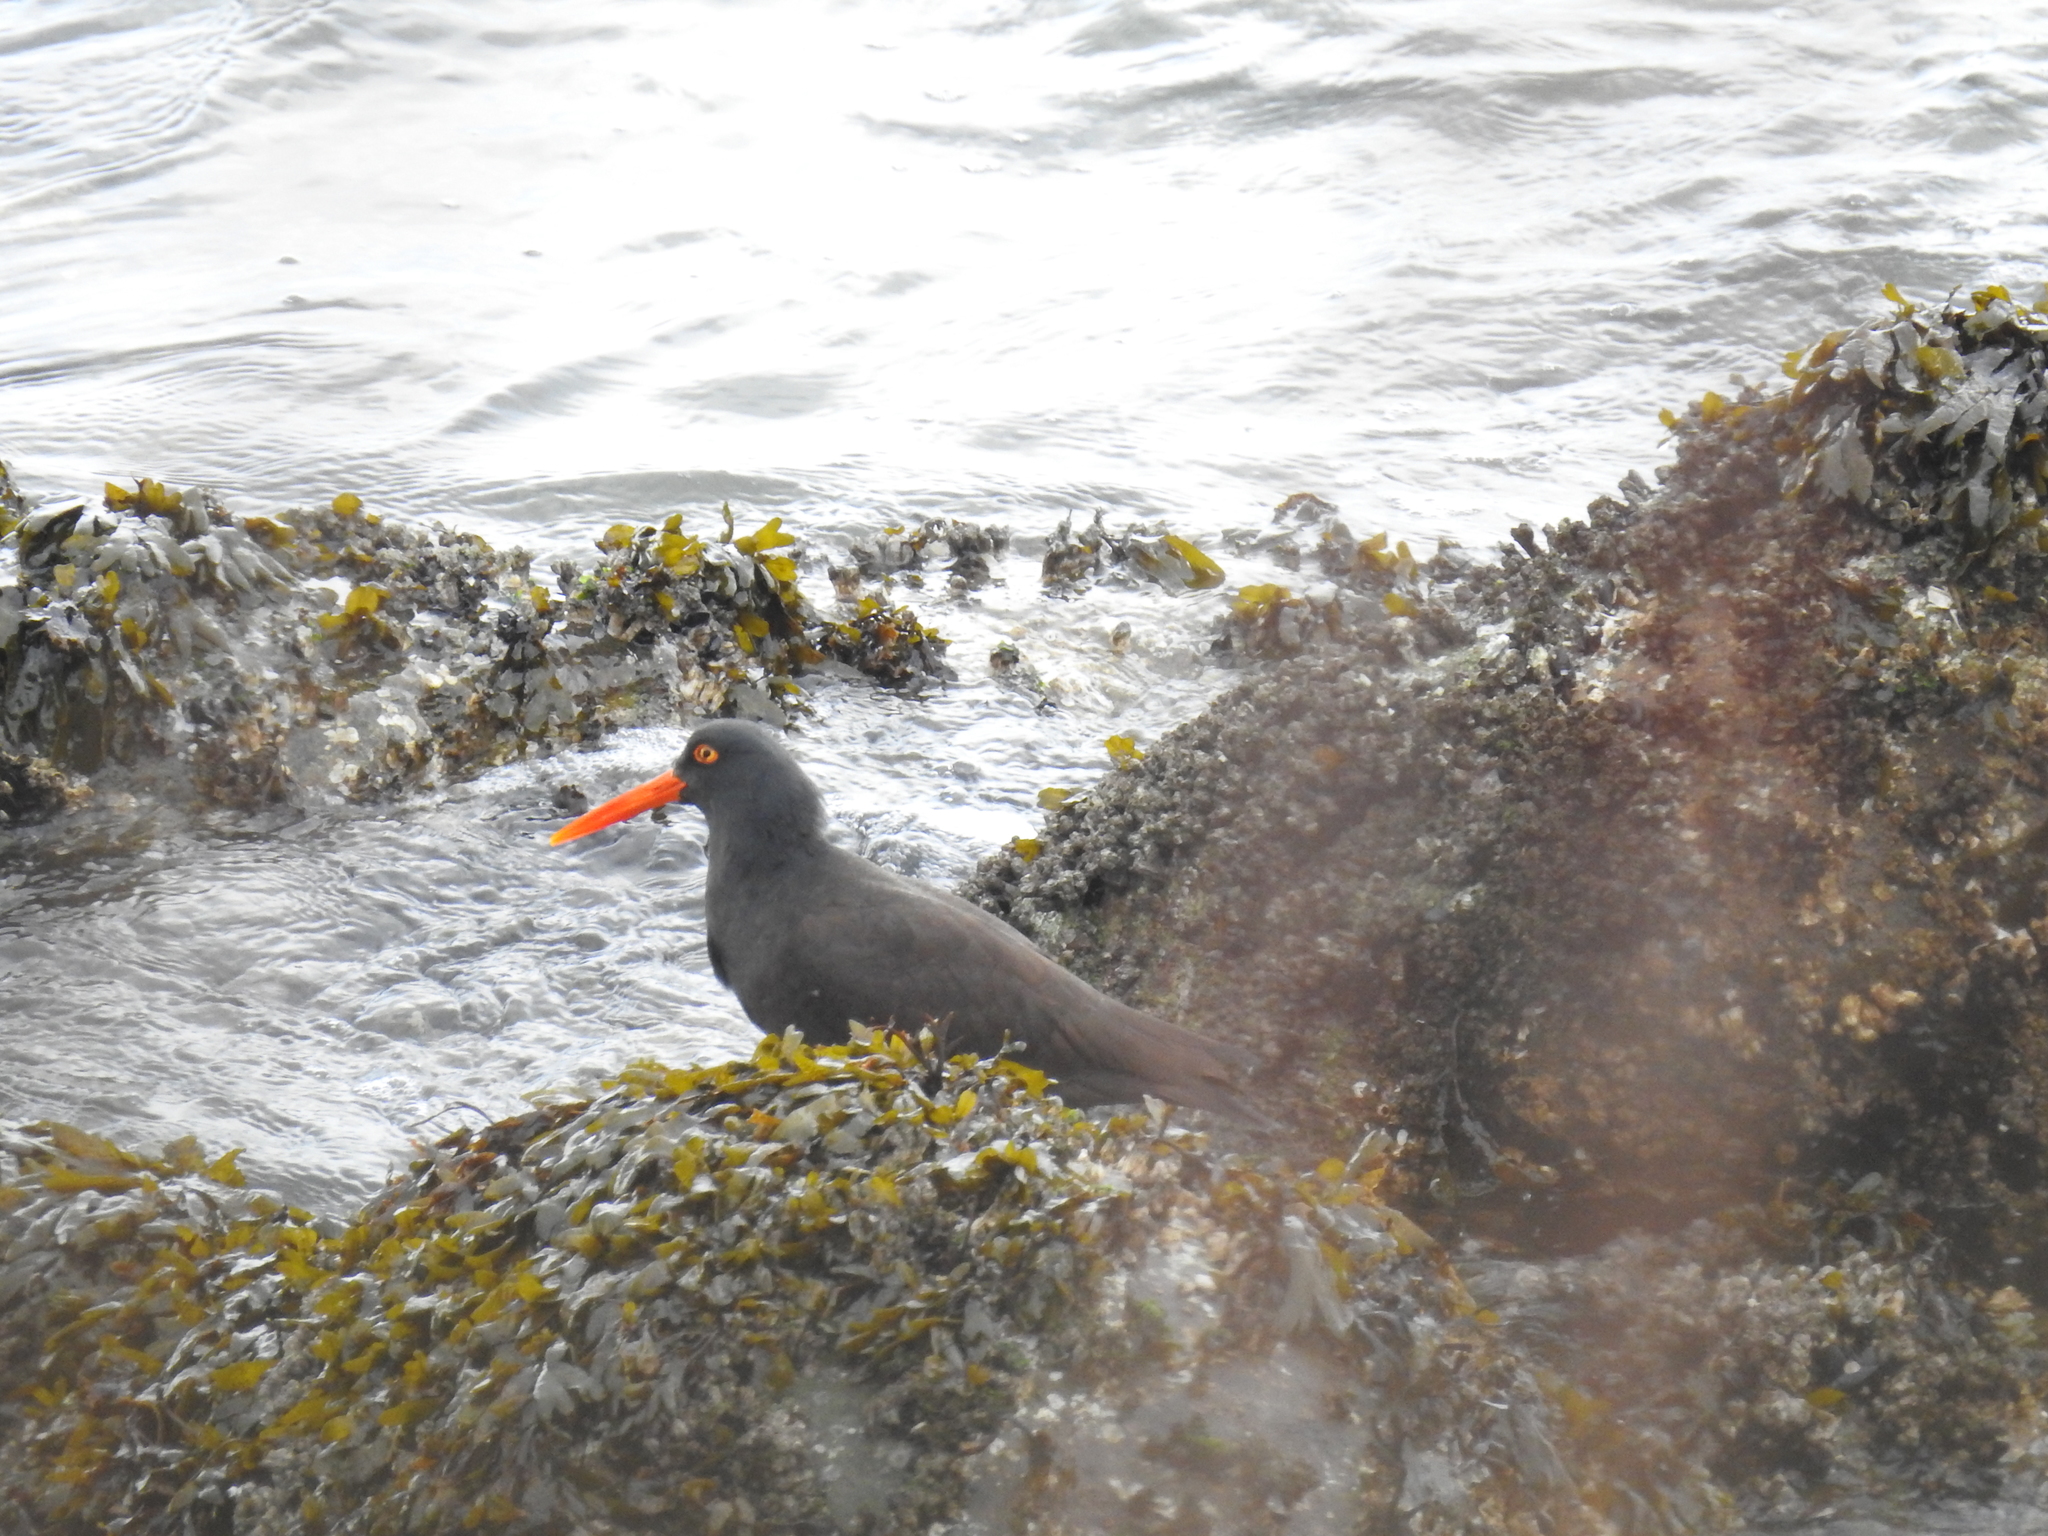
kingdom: Animalia
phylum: Chordata
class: Aves
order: Charadriiformes
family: Haematopodidae
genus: Haematopus
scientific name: Haematopus bachmani
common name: Black oystercatcher
